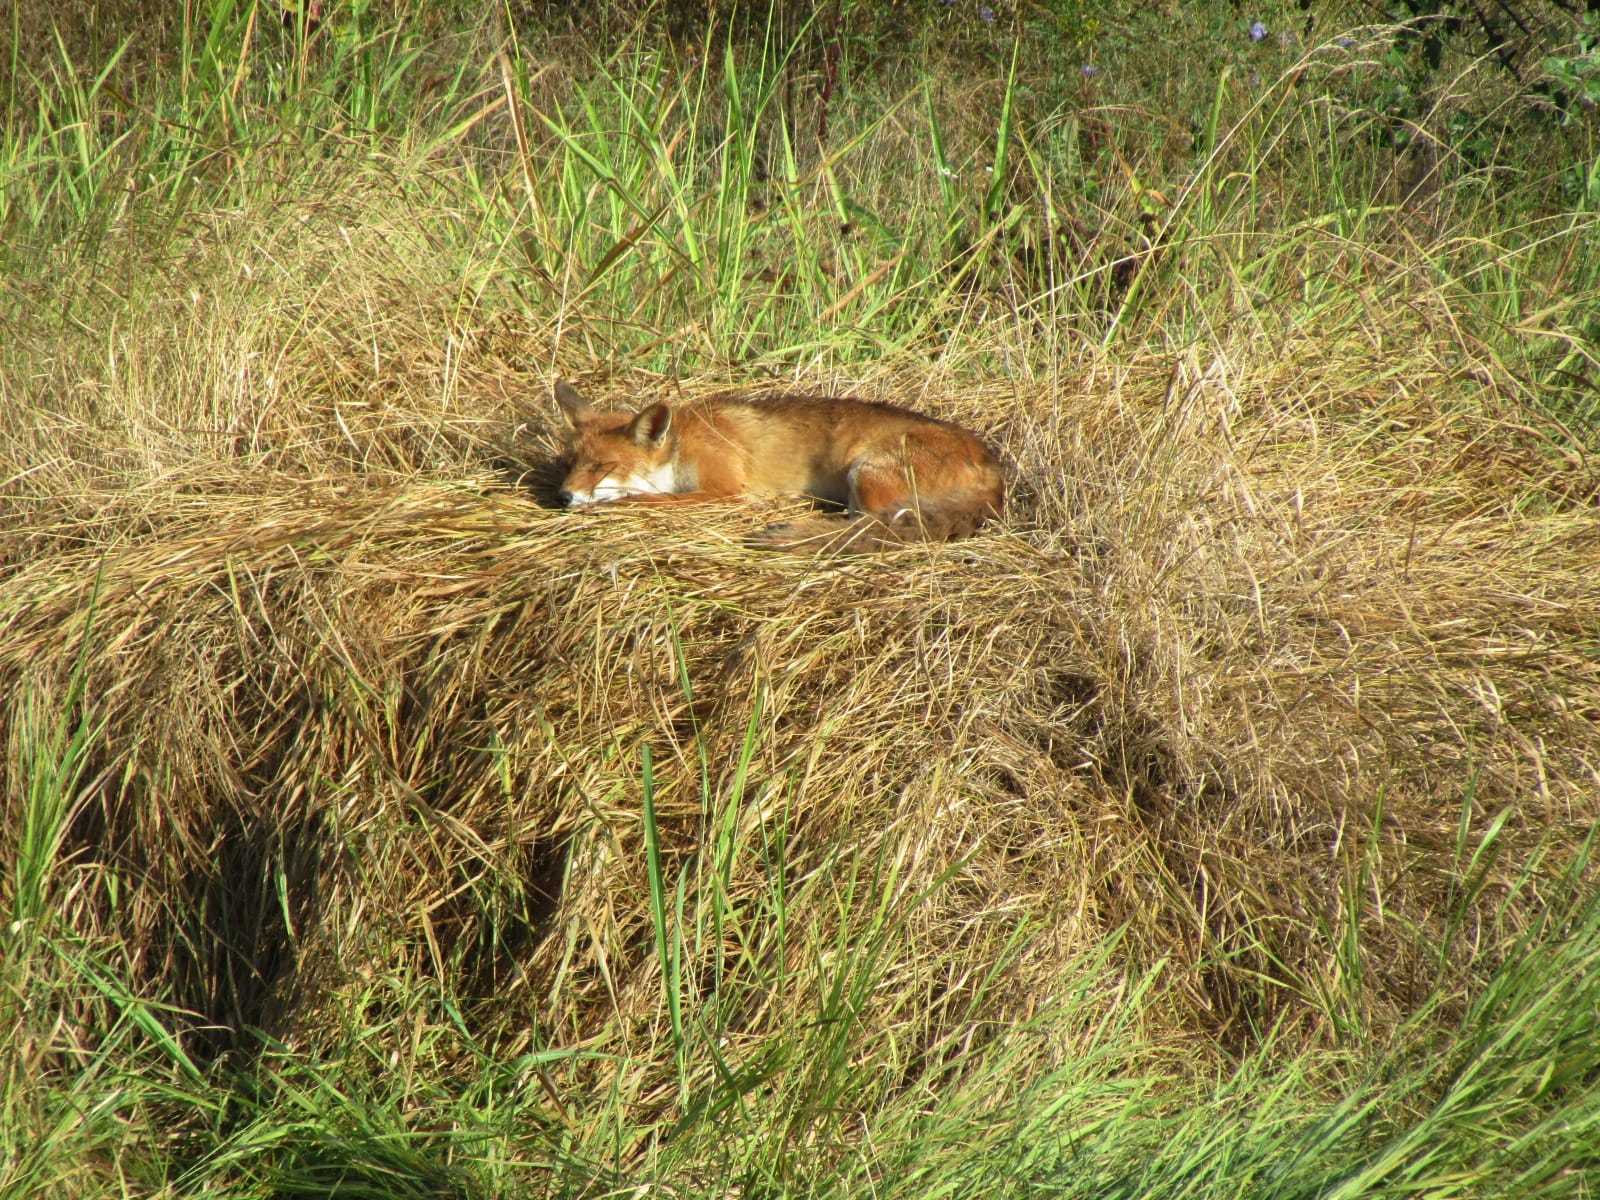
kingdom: Animalia
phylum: Chordata
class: Mammalia
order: Carnivora
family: Canidae
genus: Vulpes
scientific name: Vulpes vulpes
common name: Red fox
